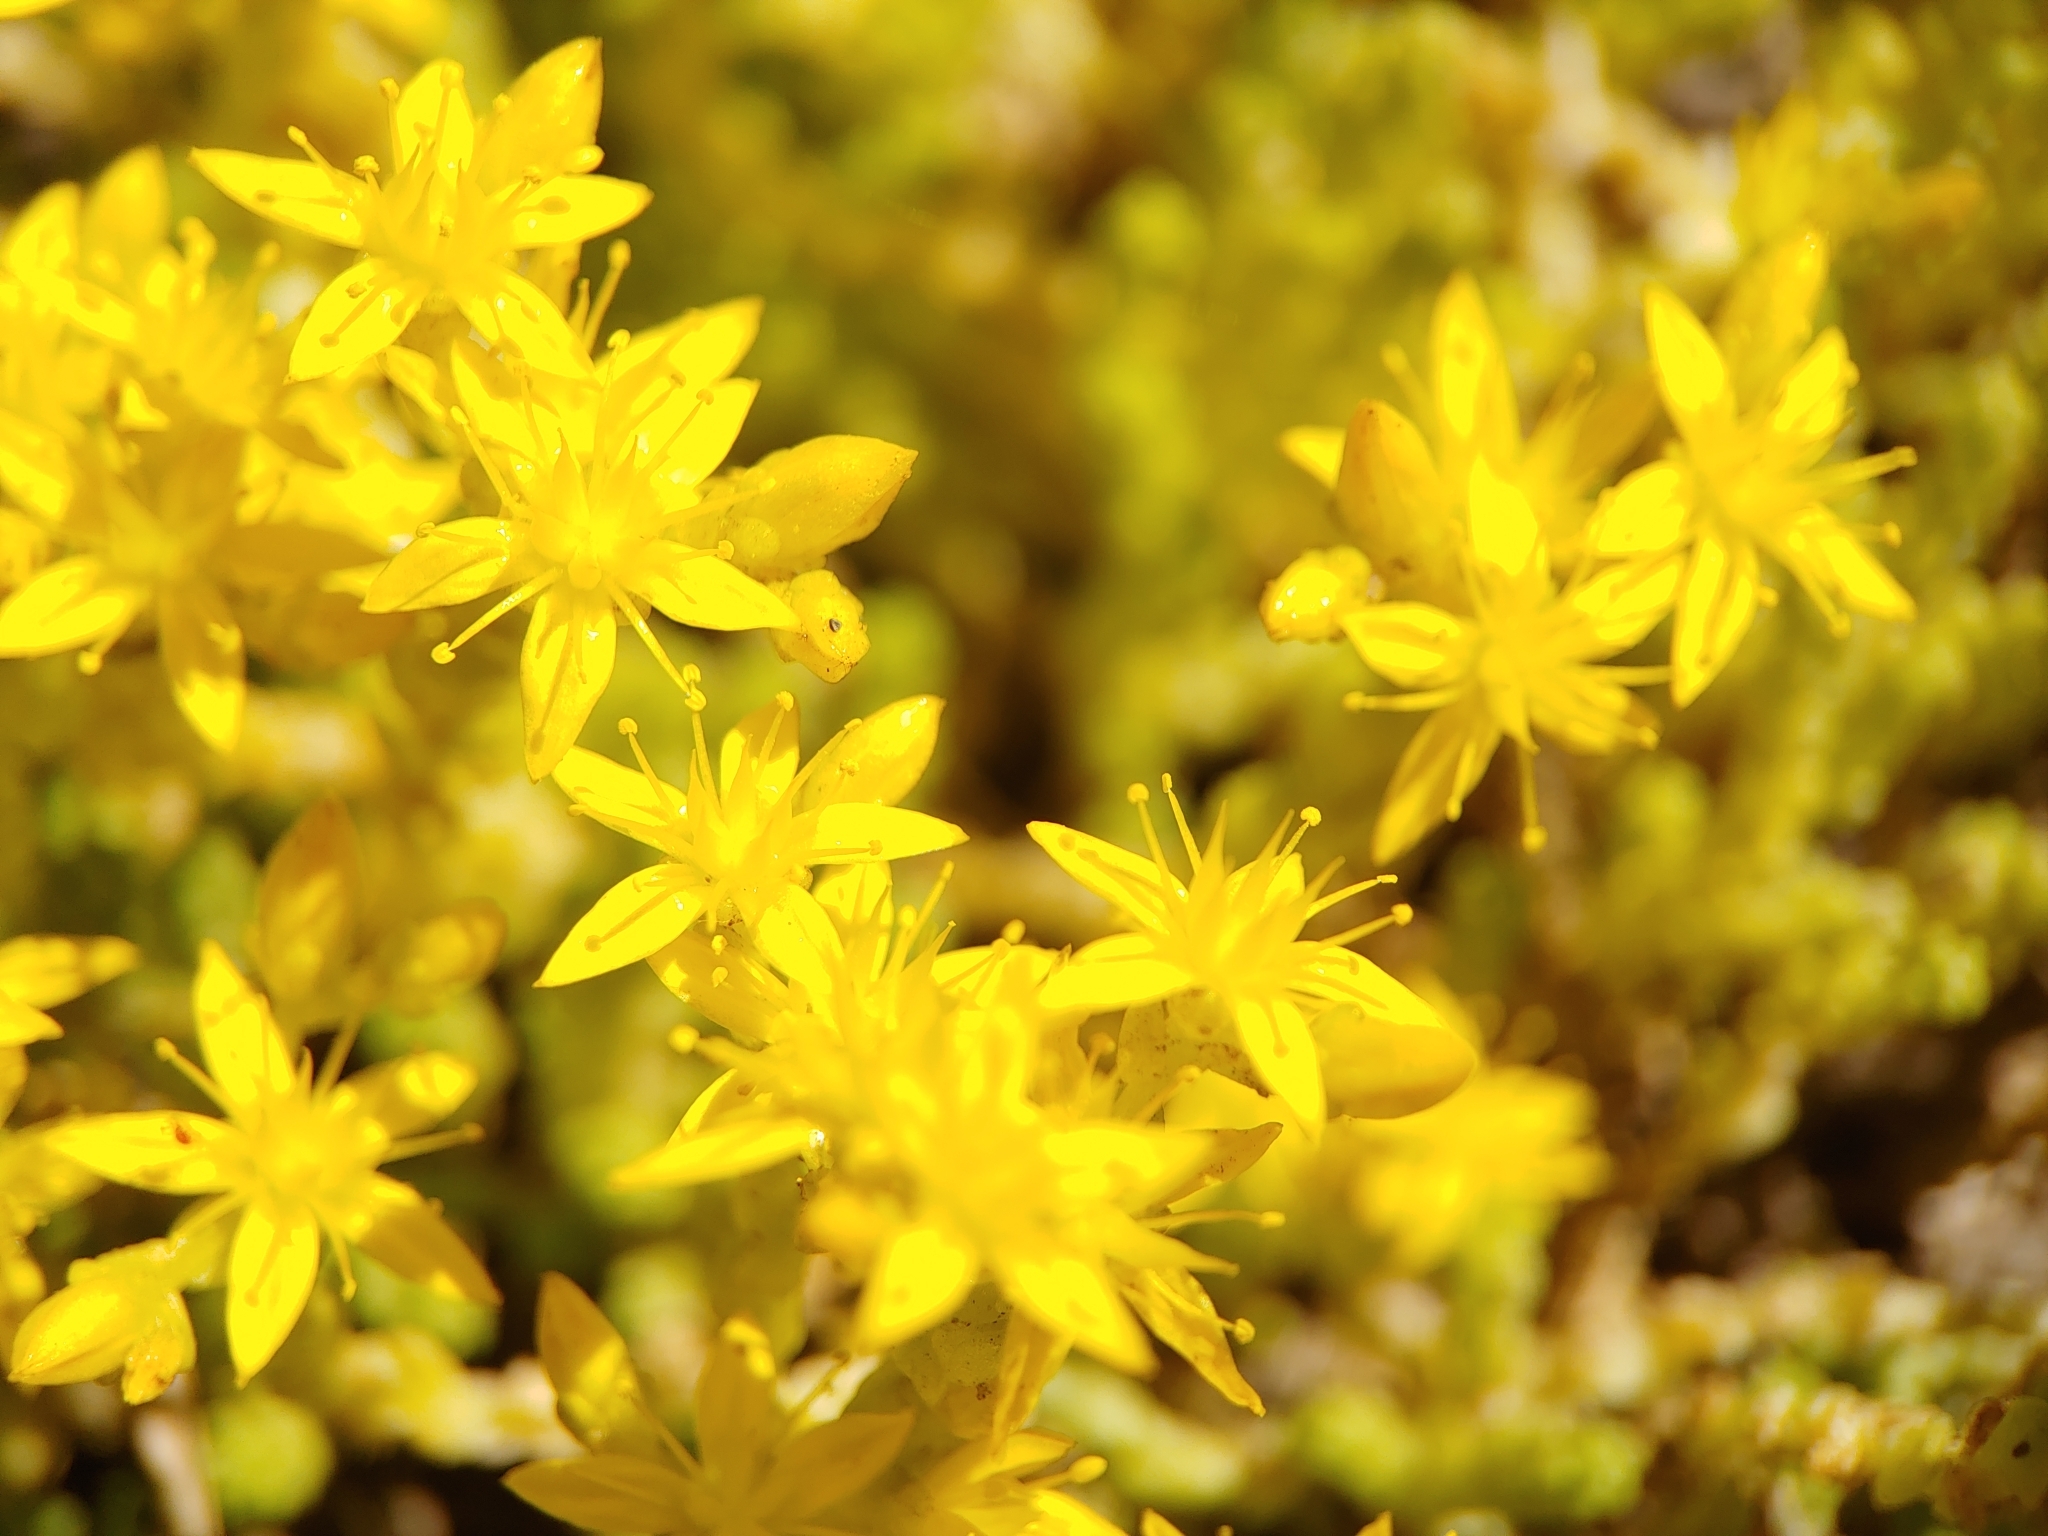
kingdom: Plantae
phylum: Tracheophyta
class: Magnoliopsida
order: Saxifragales
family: Crassulaceae
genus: Sedum
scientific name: Sedum acre
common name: Biting stonecrop
